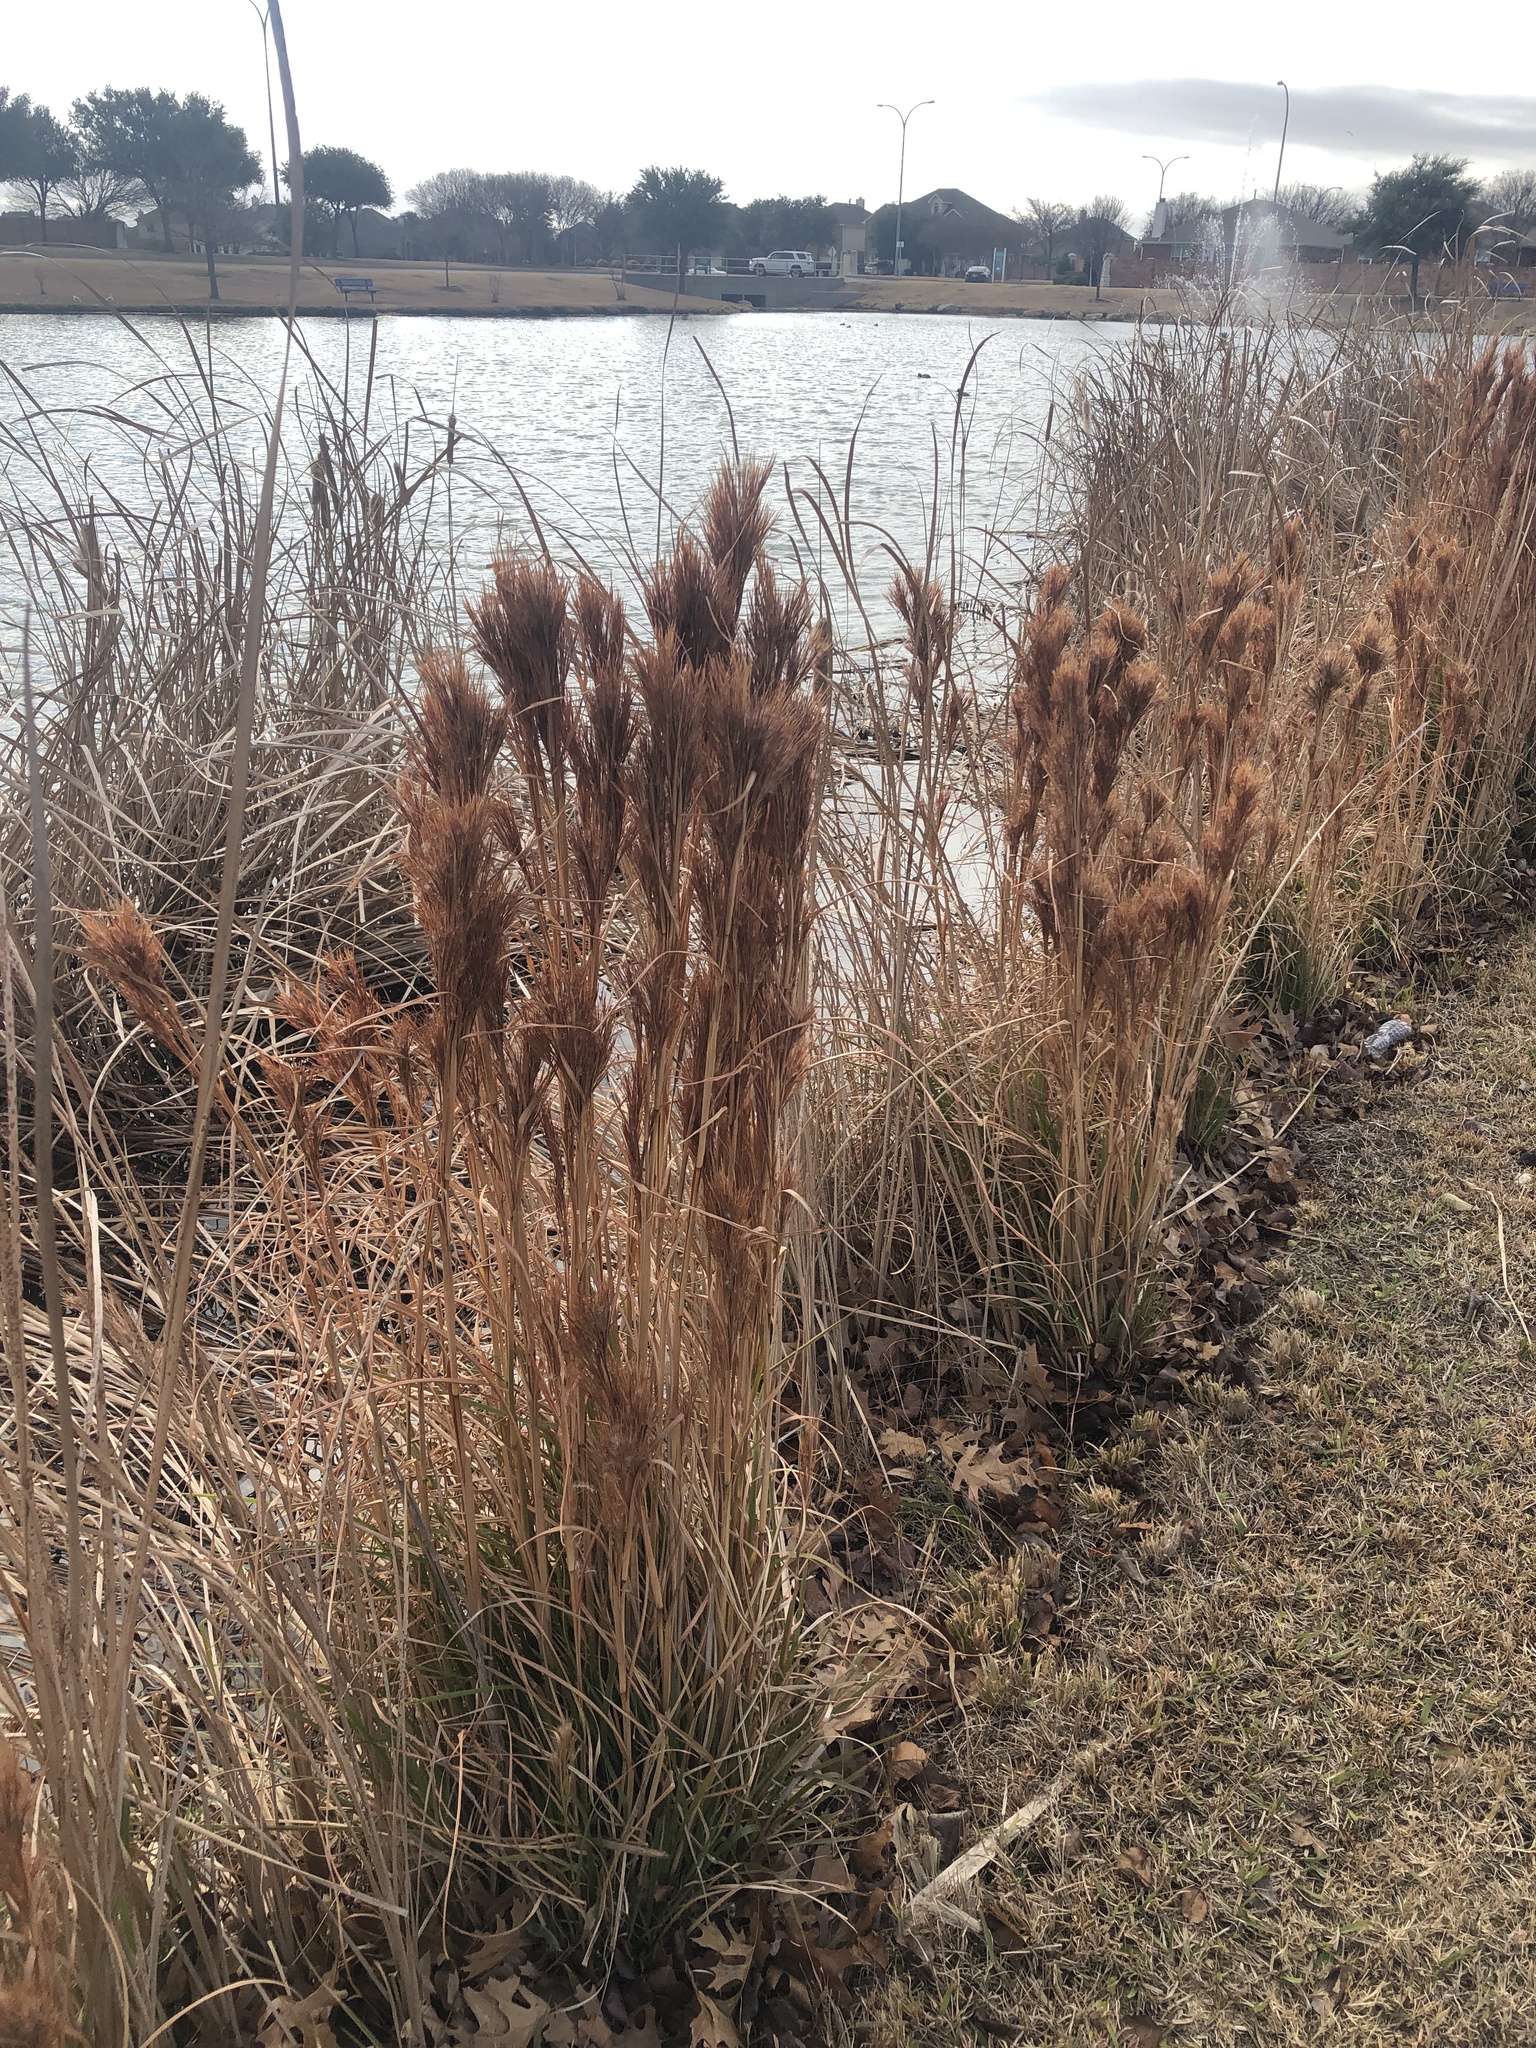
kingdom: Plantae
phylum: Tracheophyta
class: Liliopsida
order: Poales
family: Poaceae
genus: Andropogon
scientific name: Andropogon tenuispatheus
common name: Bushy bluestem
